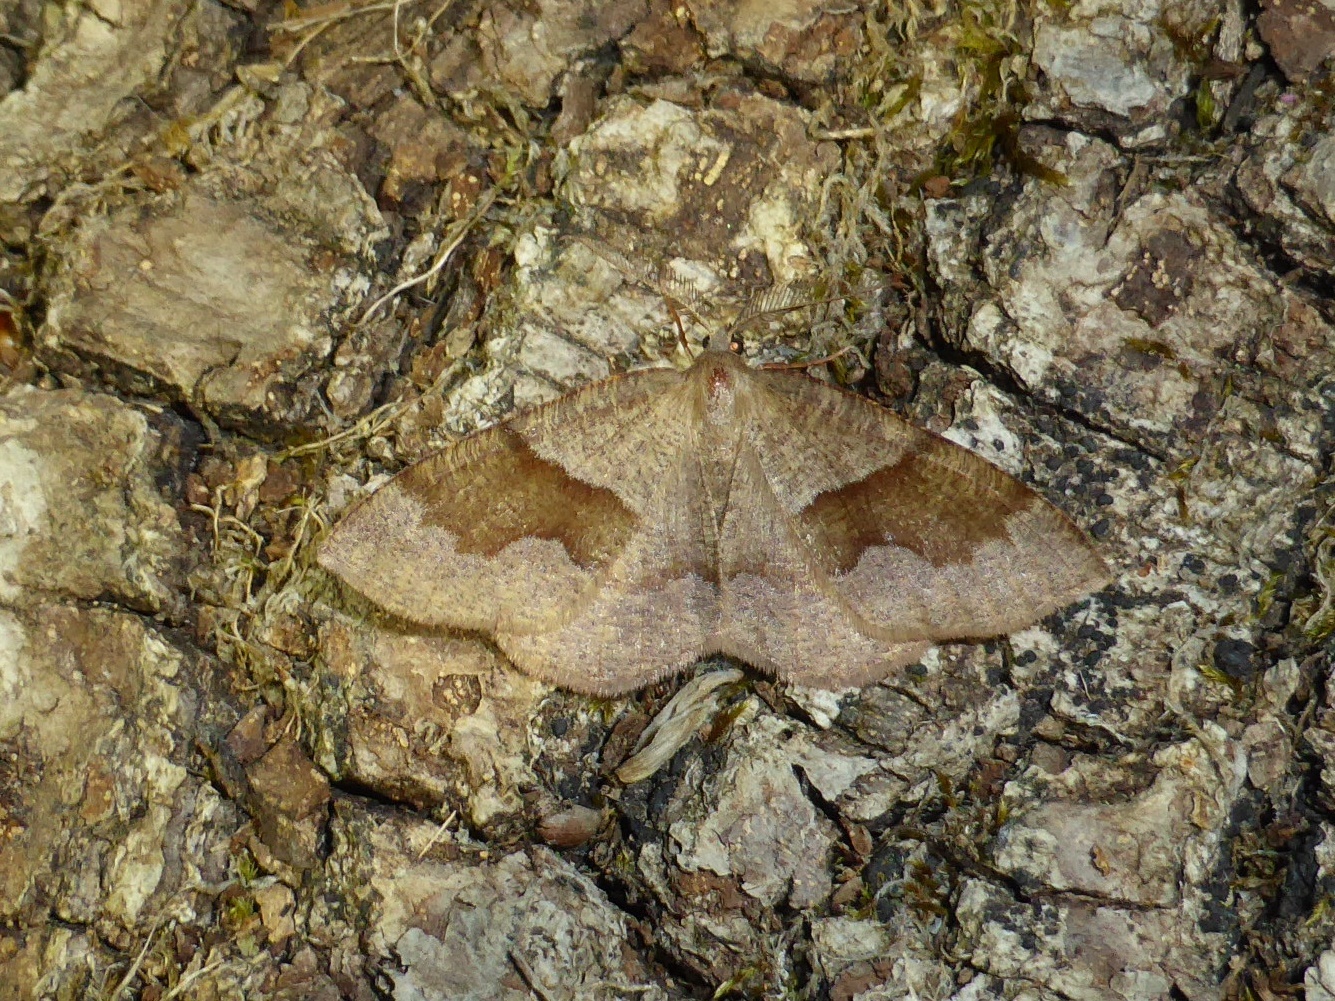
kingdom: Animalia
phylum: Arthropoda
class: Insecta
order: Lepidoptera
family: Geometridae
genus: Plagodis
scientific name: Plagodis pulveraria
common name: Barred umber
